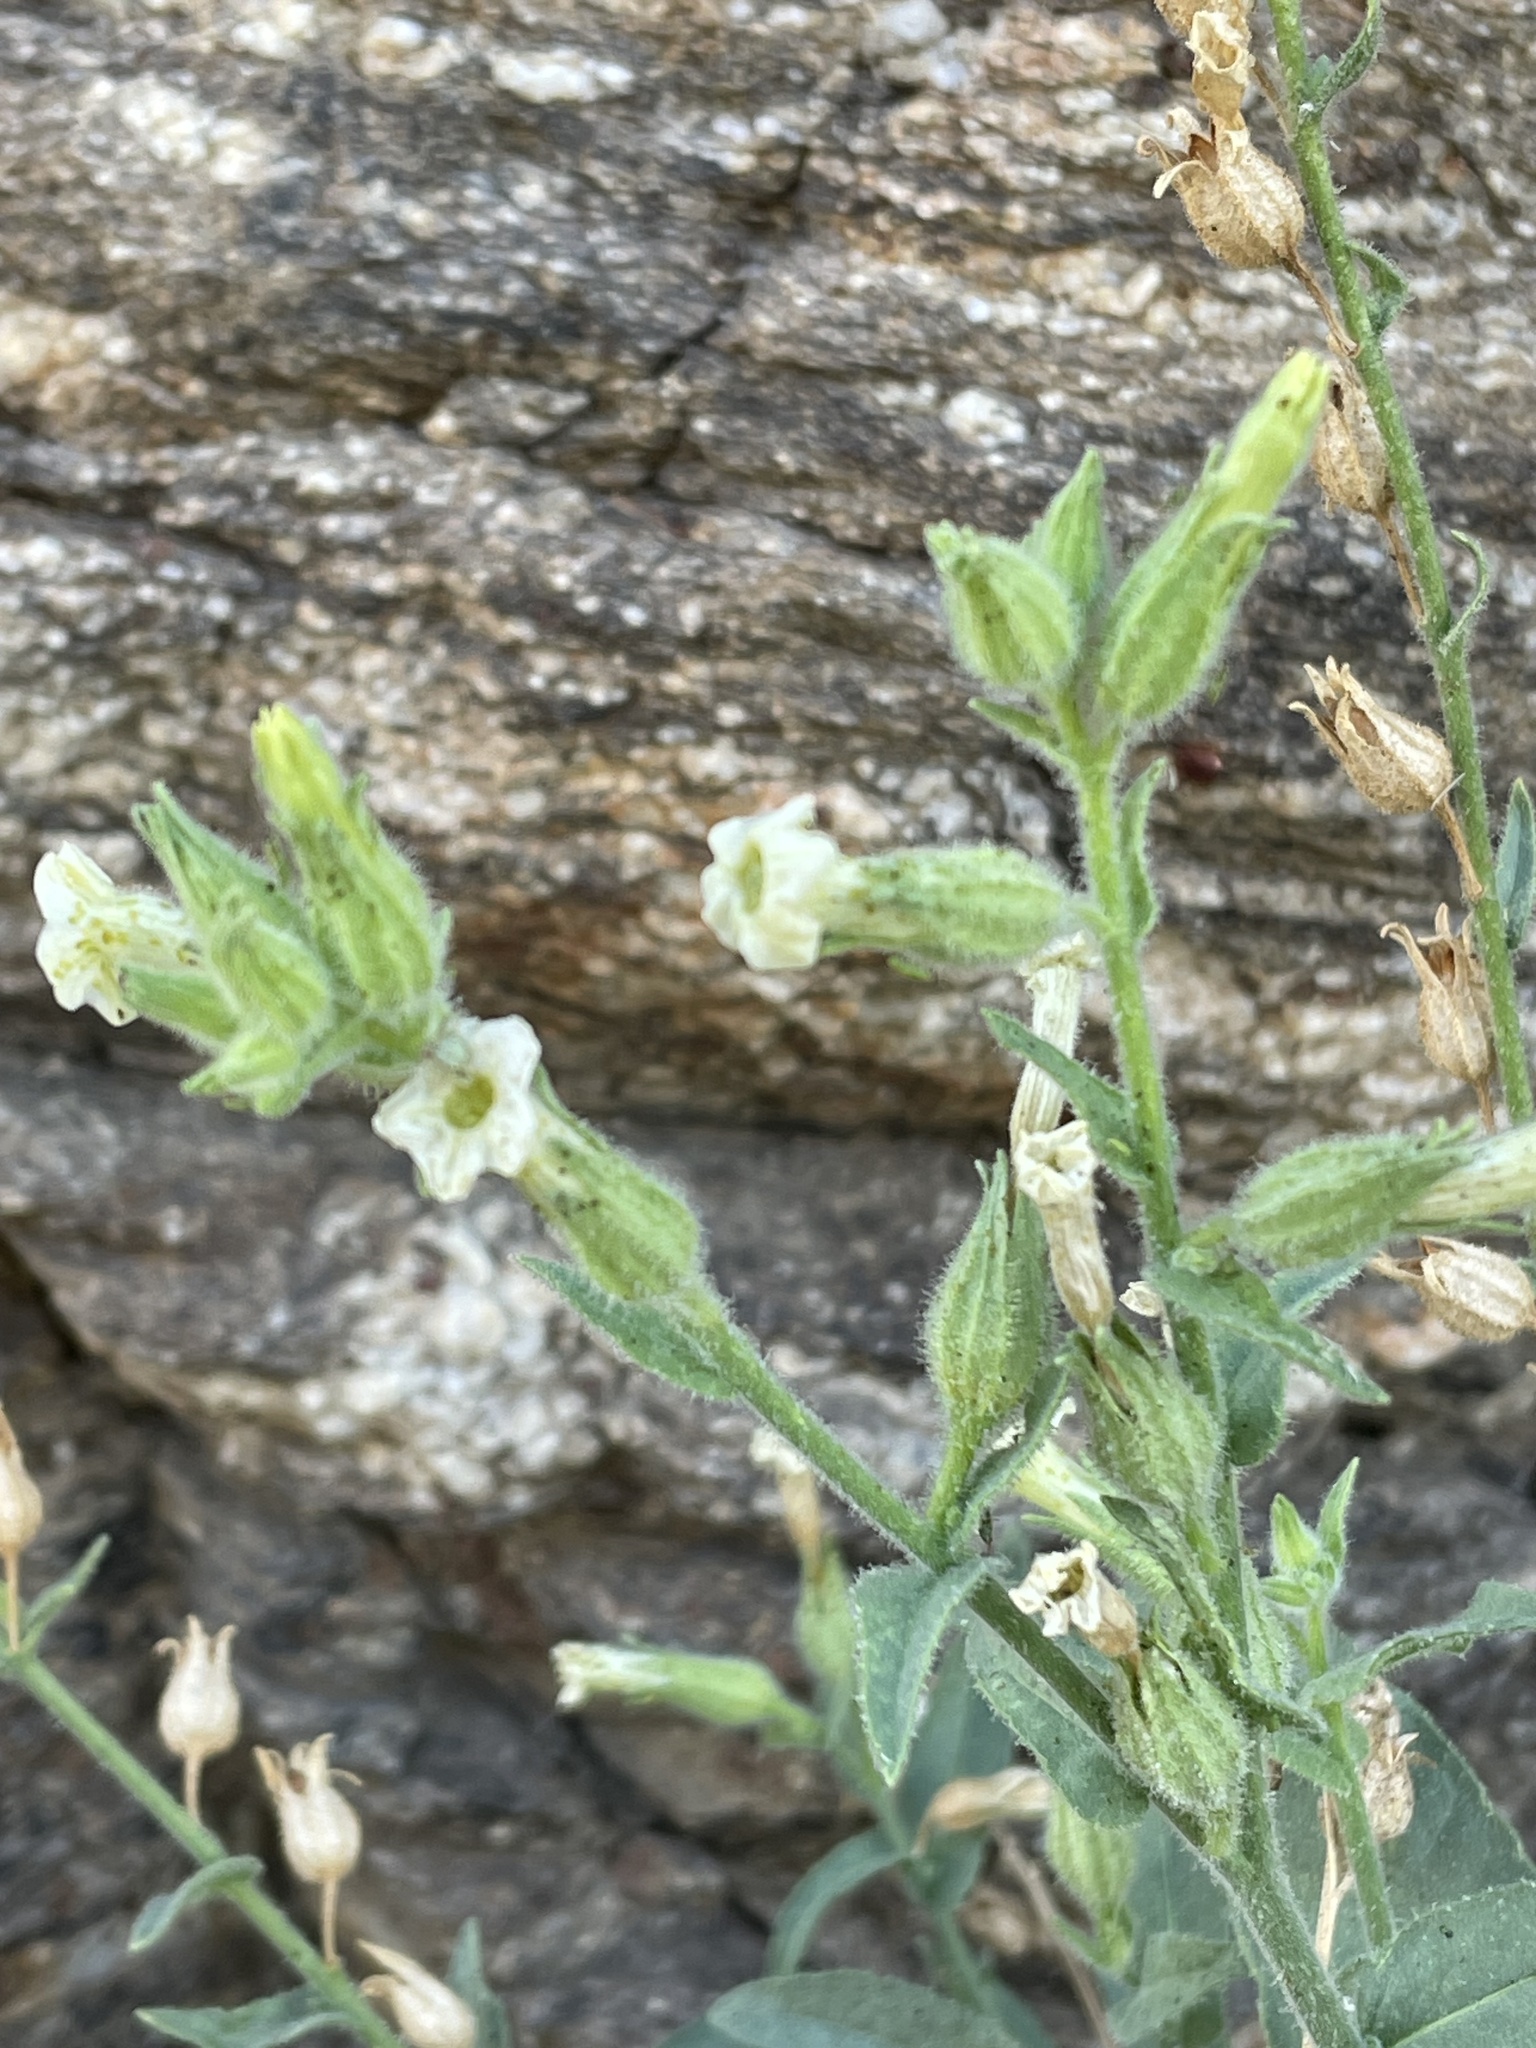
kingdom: Plantae
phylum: Tracheophyta
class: Magnoliopsida
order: Solanales
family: Solanaceae
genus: Nicotiana
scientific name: Nicotiana obtusifolia
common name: Desert tobacco
